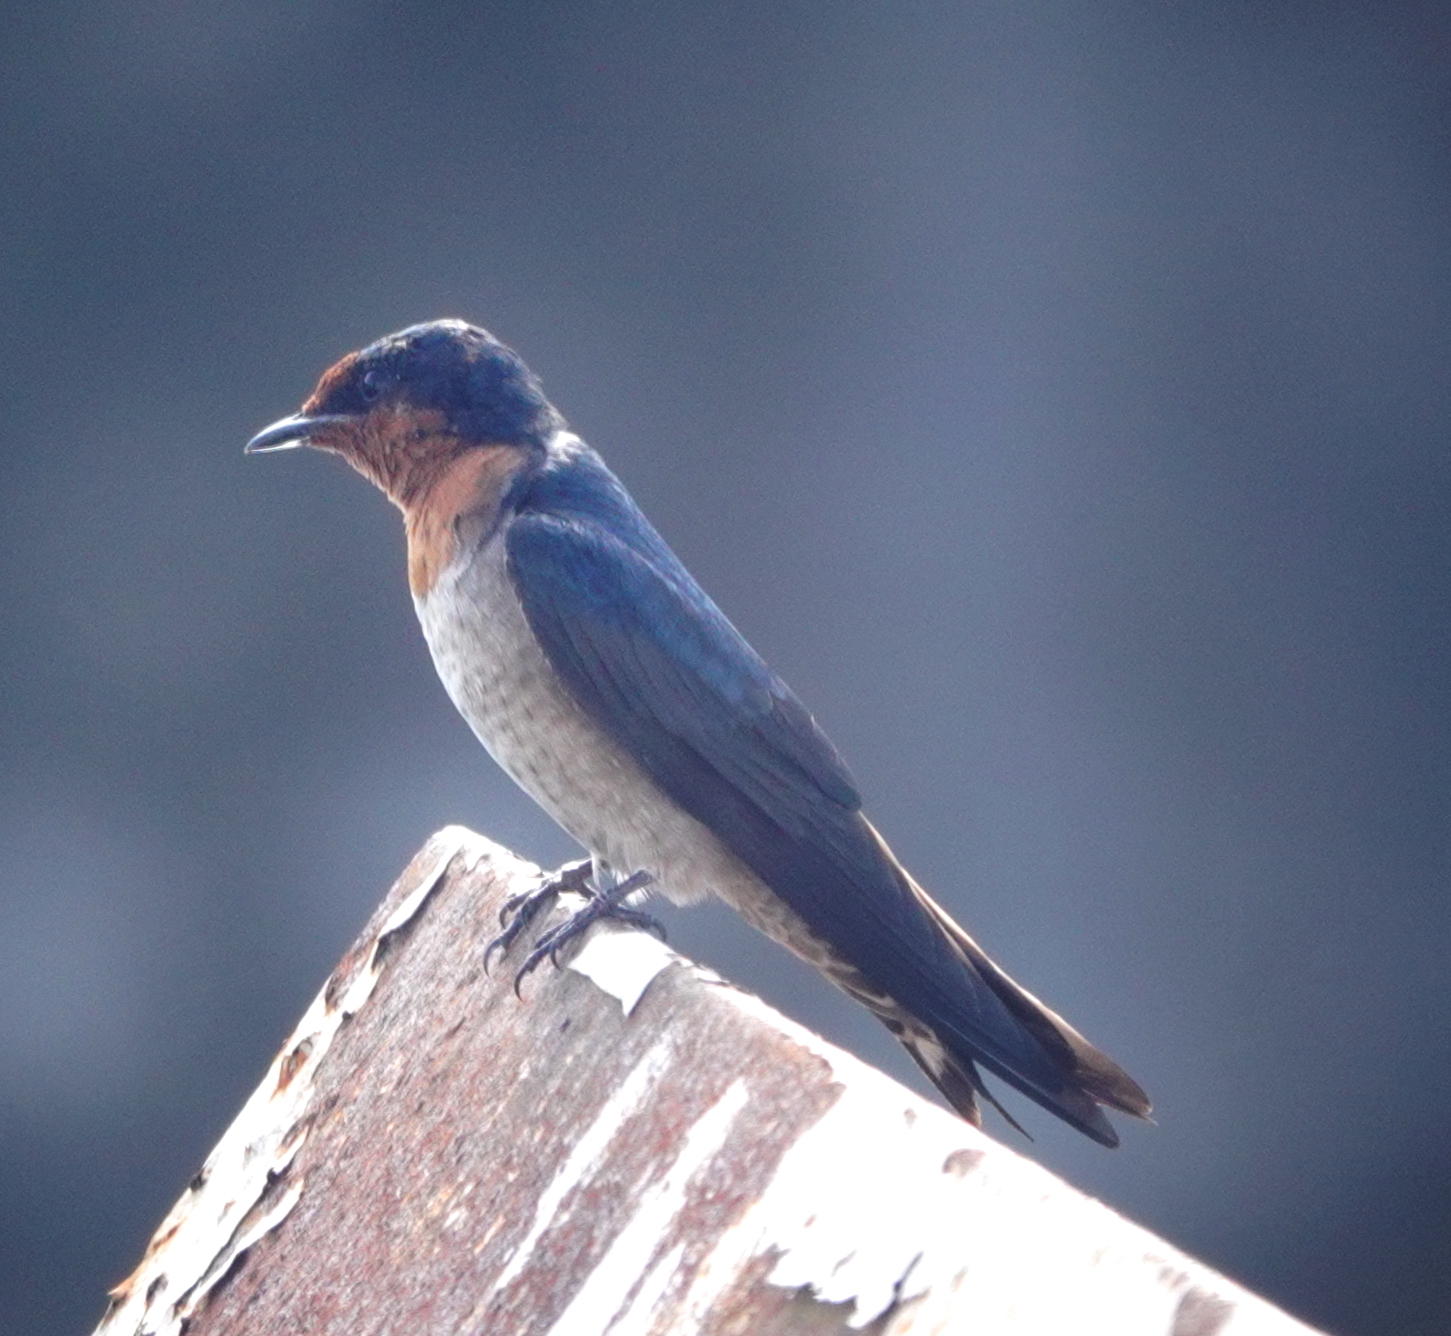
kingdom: Animalia
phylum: Chordata
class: Aves
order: Passeriformes
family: Hirundinidae
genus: Hirundo
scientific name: Hirundo tahitica
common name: Pacific swallow
